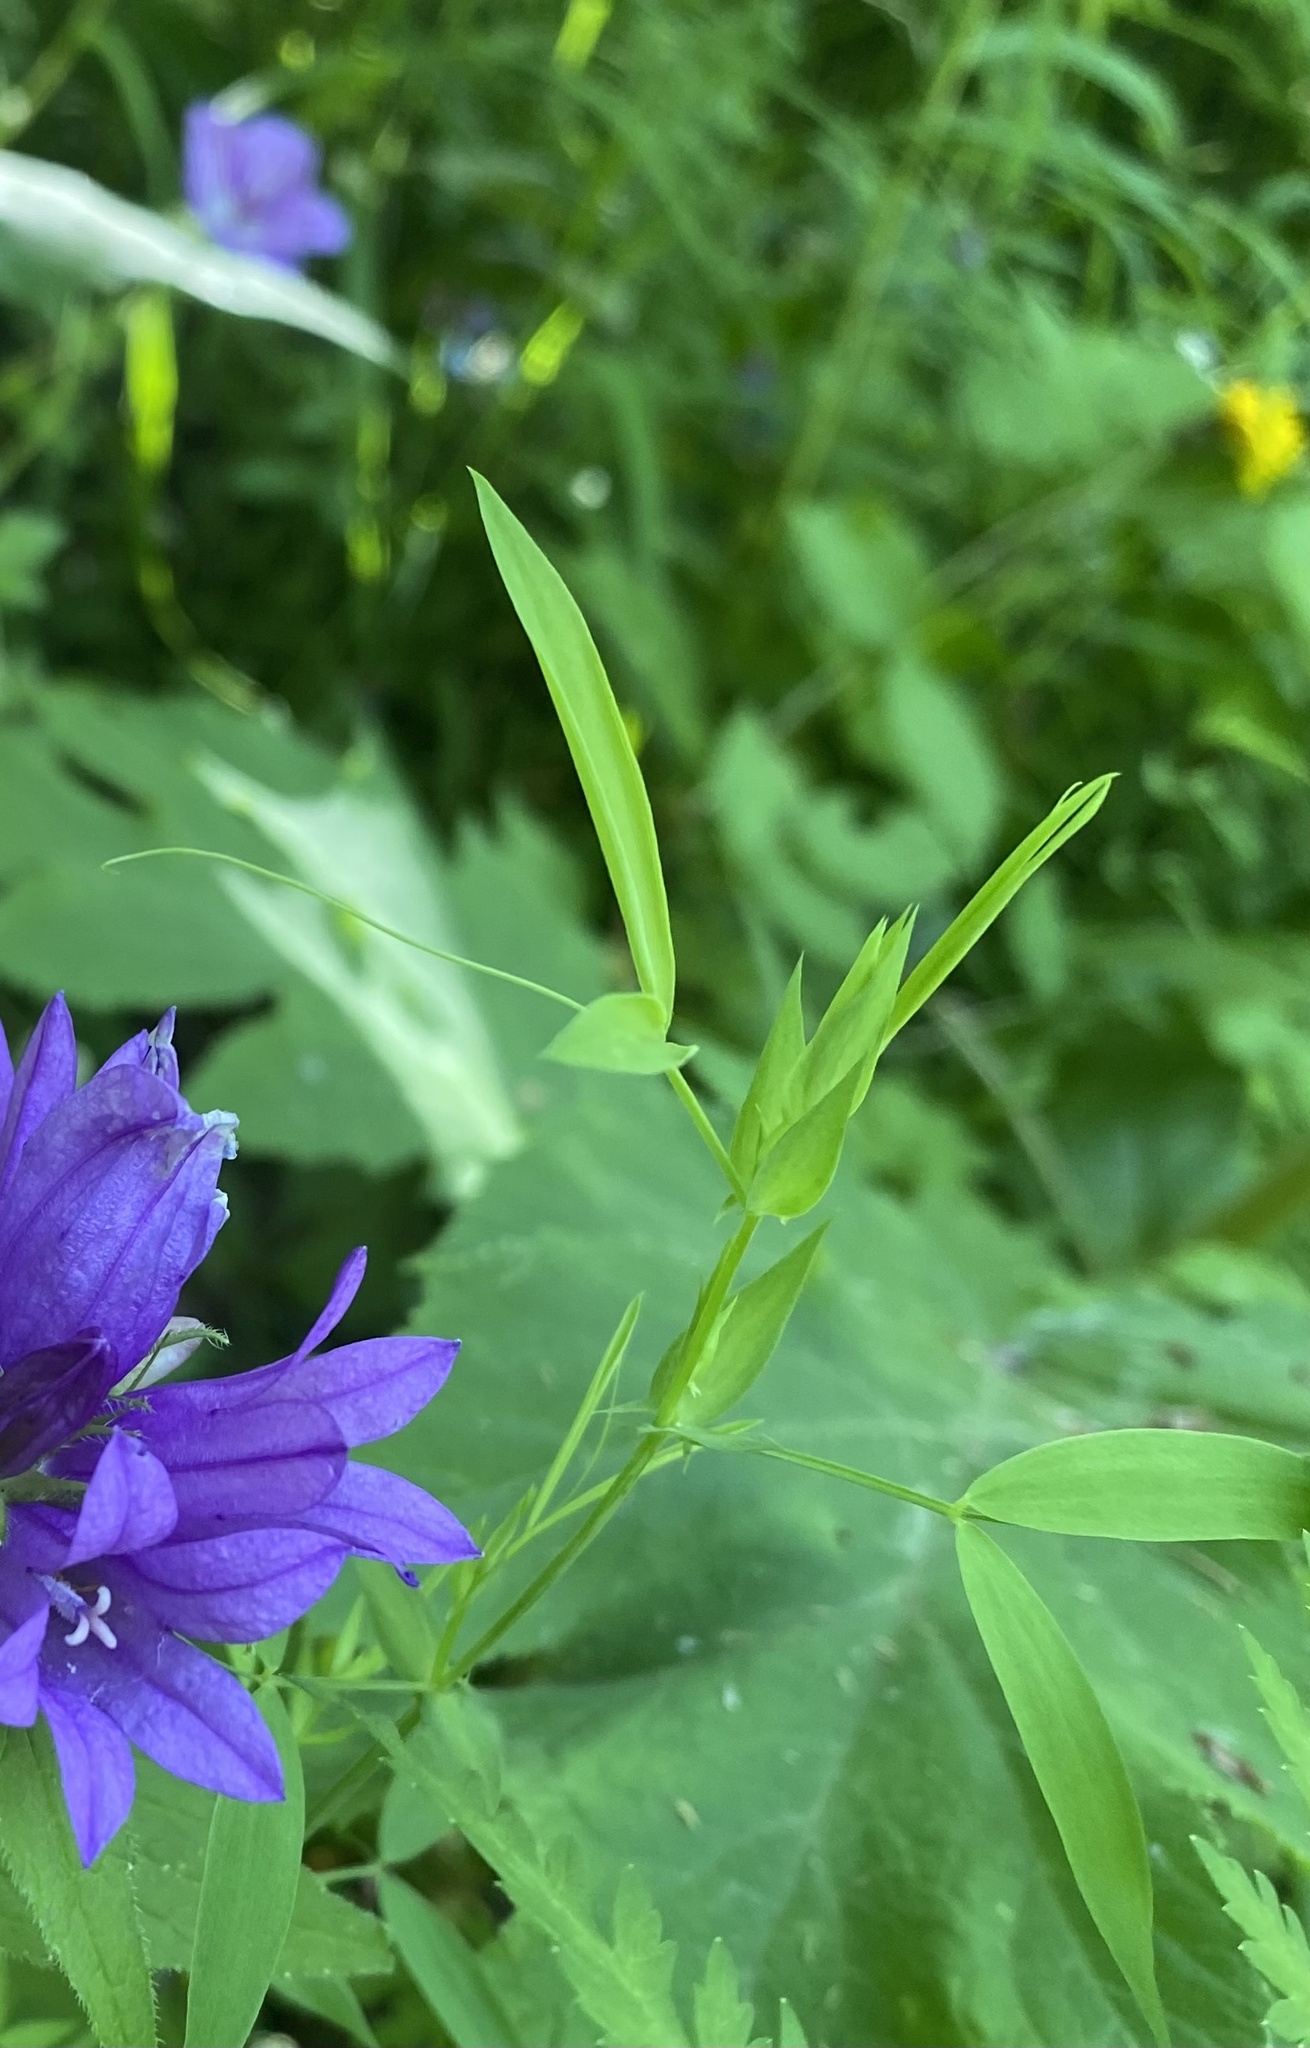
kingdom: Plantae
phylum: Tracheophyta
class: Magnoliopsida
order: Fabales
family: Fabaceae
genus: Lathyrus
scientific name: Lathyrus pratensis
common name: Meadow vetchling
